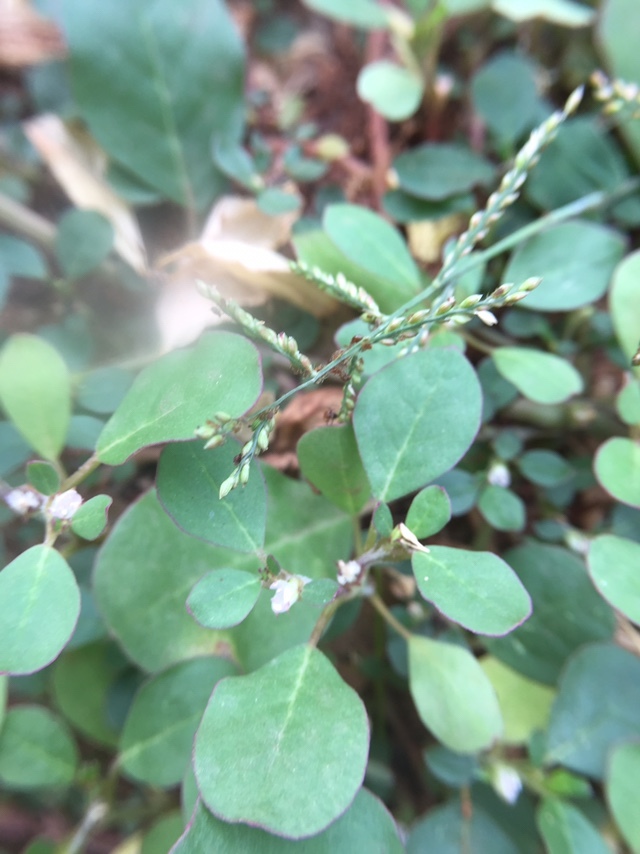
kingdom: Plantae
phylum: Tracheophyta
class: Magnoliopsida
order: Caryophyllales
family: Aizoaceae
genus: Trianthema
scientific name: Trianthema portulacastrum
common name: Desert horsepurslane
